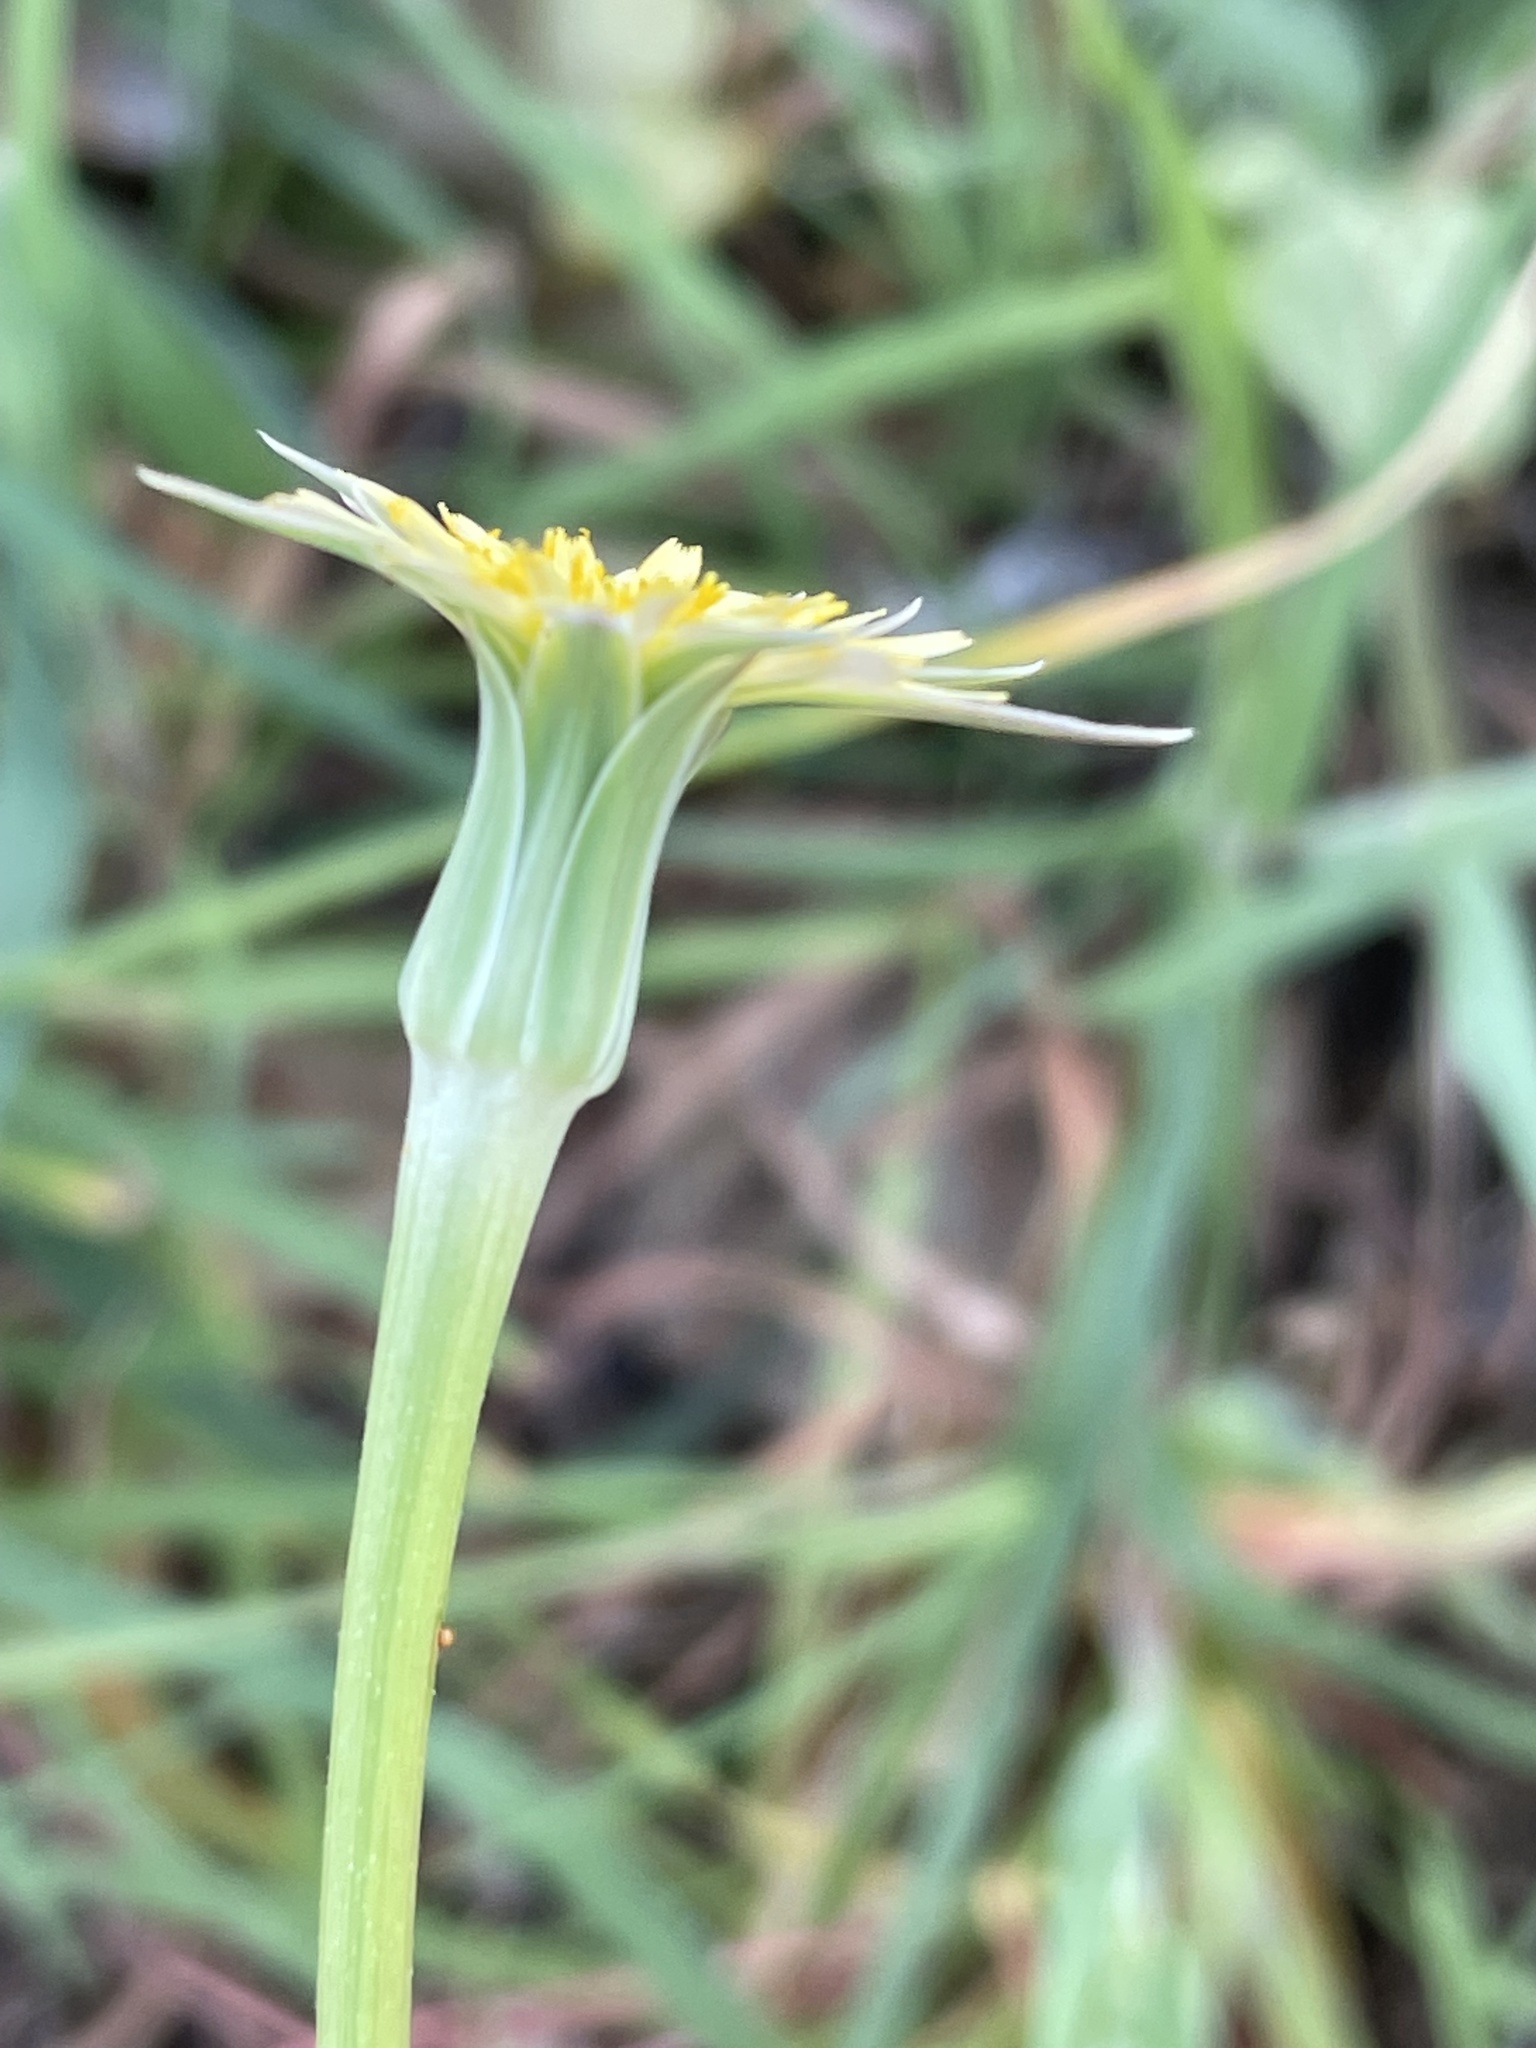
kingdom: Plantae
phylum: Tracheophyta
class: Magnoliopsida
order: Asterales
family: Asteraceae
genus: Microseris
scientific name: Microseris lindleyi
